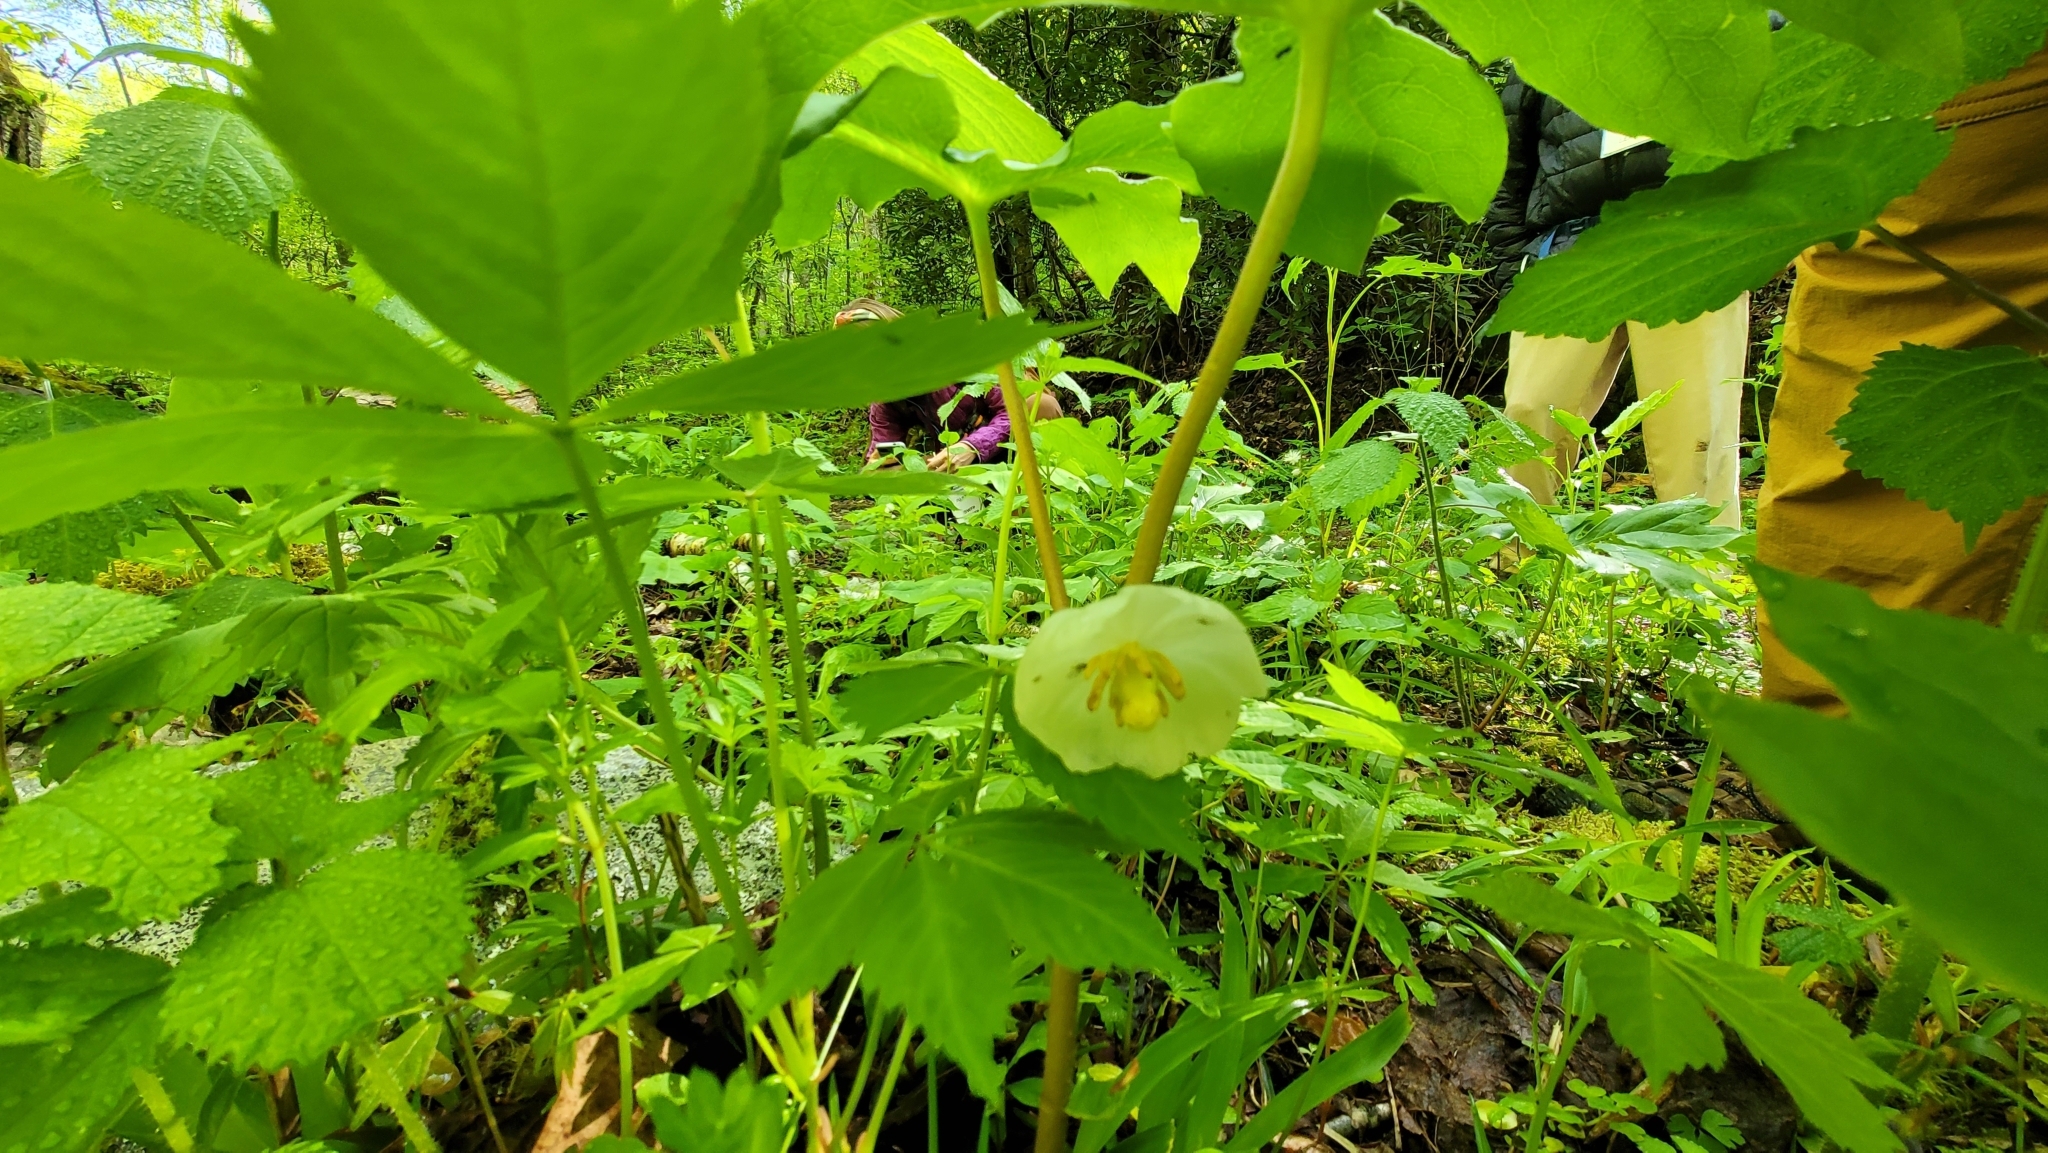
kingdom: Plantae
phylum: Tracheophyta
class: Magnoliopsida
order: Ranunculales
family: Berberidaceae
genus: Podophyllum
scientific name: Podophyllum peltatum
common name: Wild mandrake
